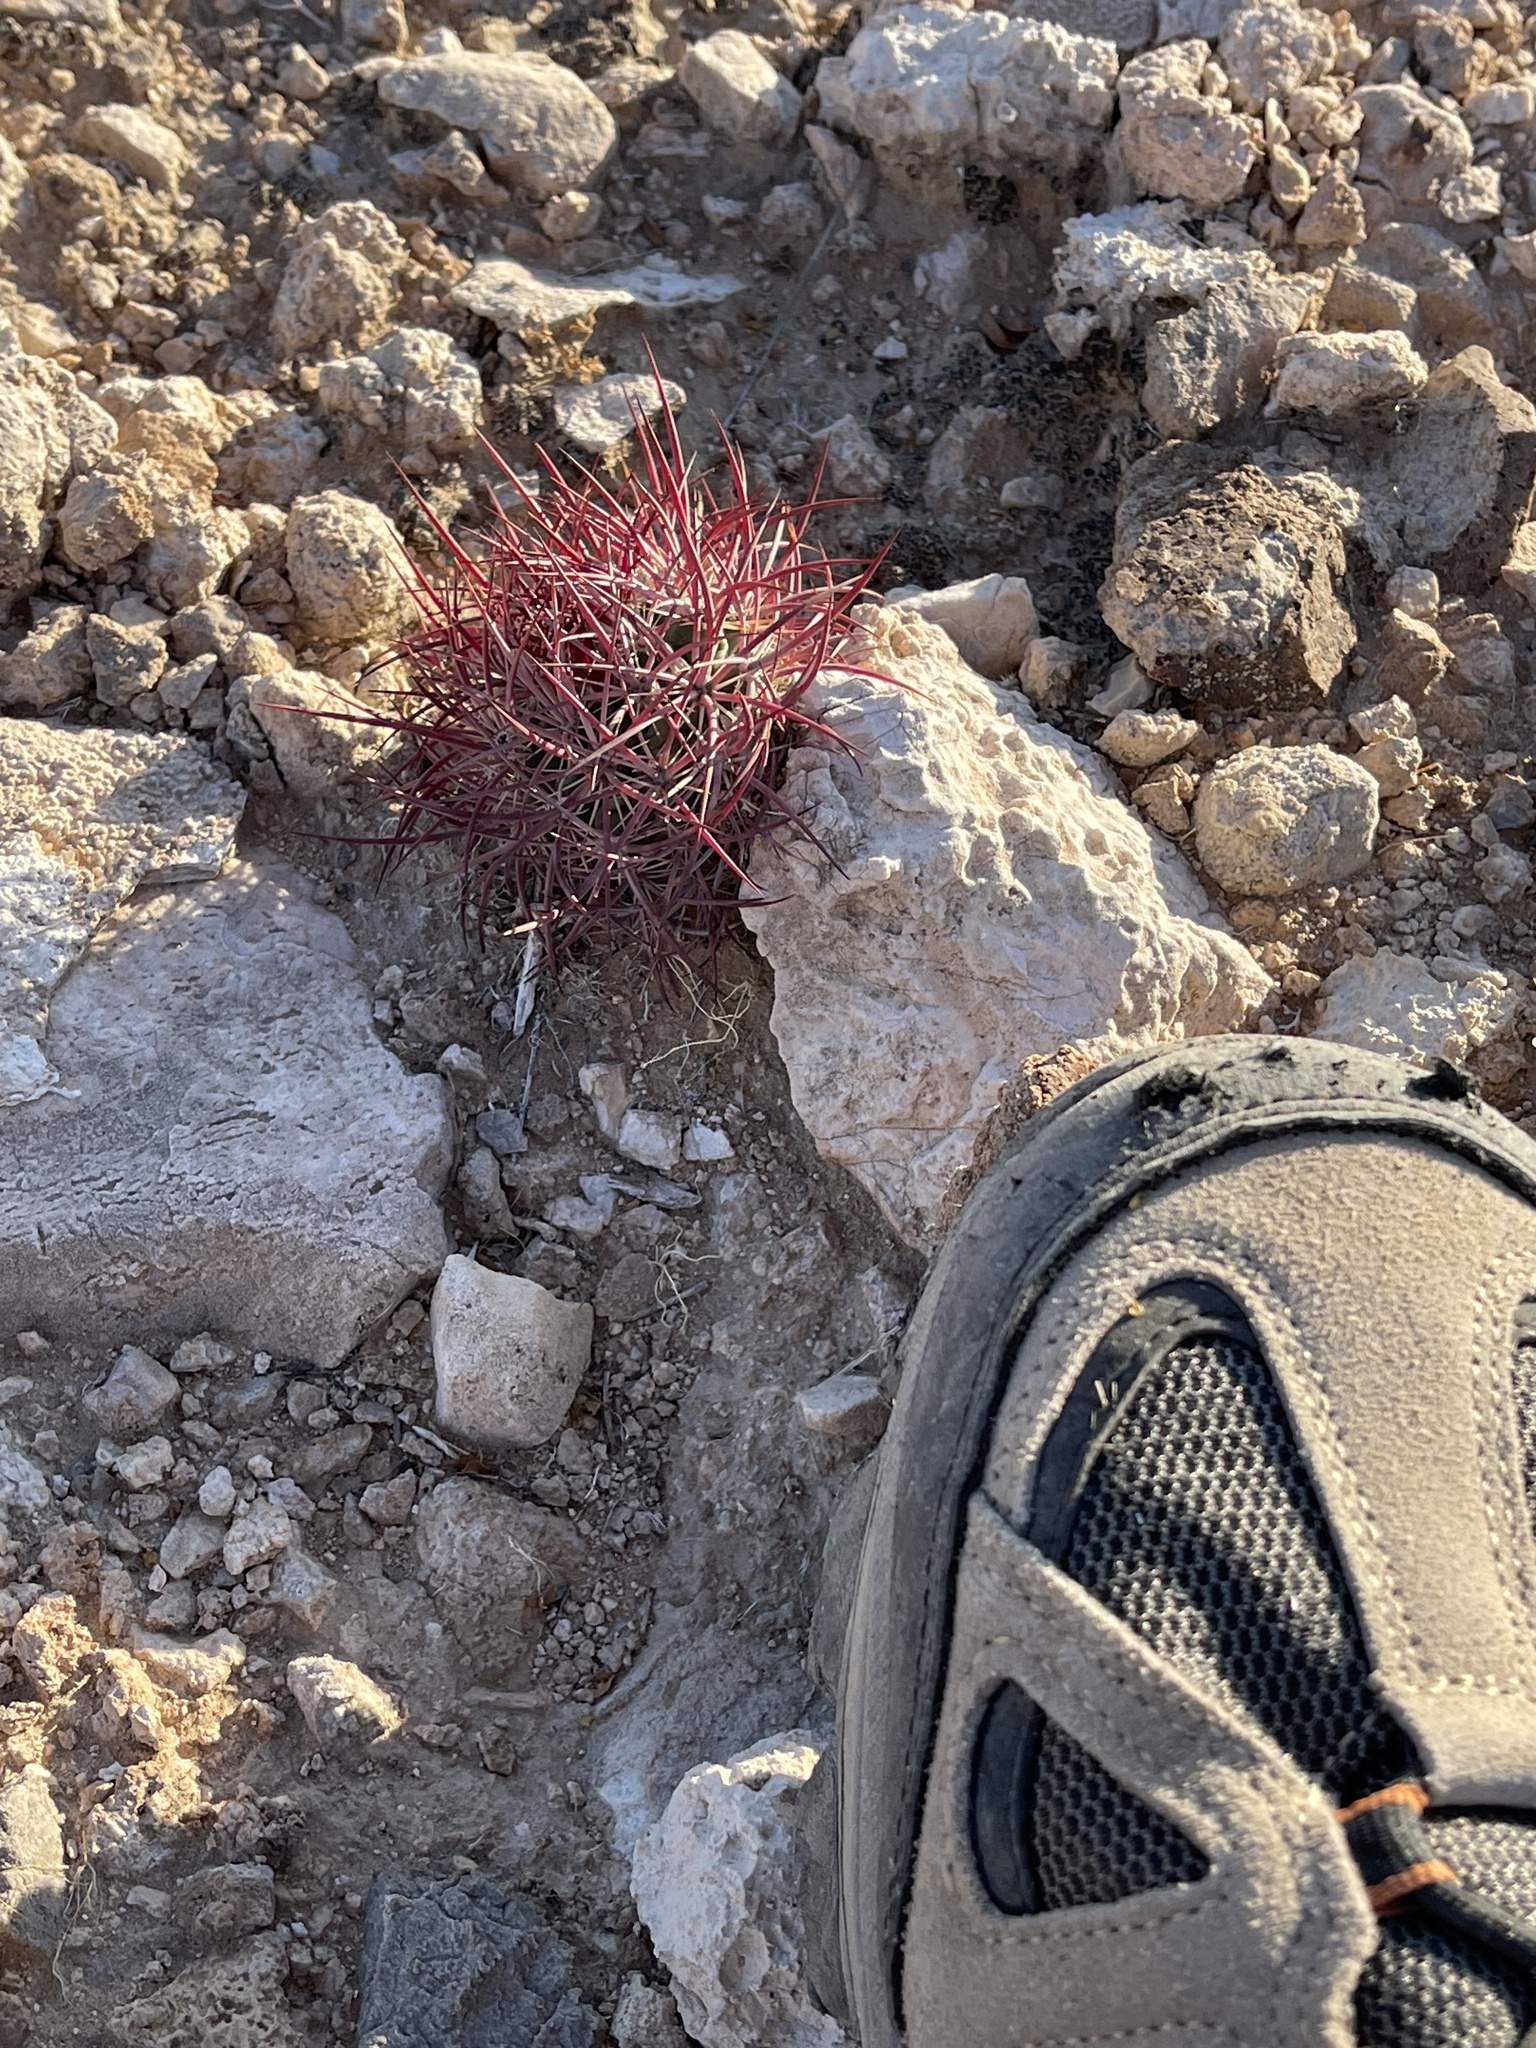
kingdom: Plantae
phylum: Tracheophyta
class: Magnoliopsida
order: Caryophyllales
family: Cactaceae
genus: Ferocactus
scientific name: Ferocactus cylindraceus
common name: California barrel cactus
